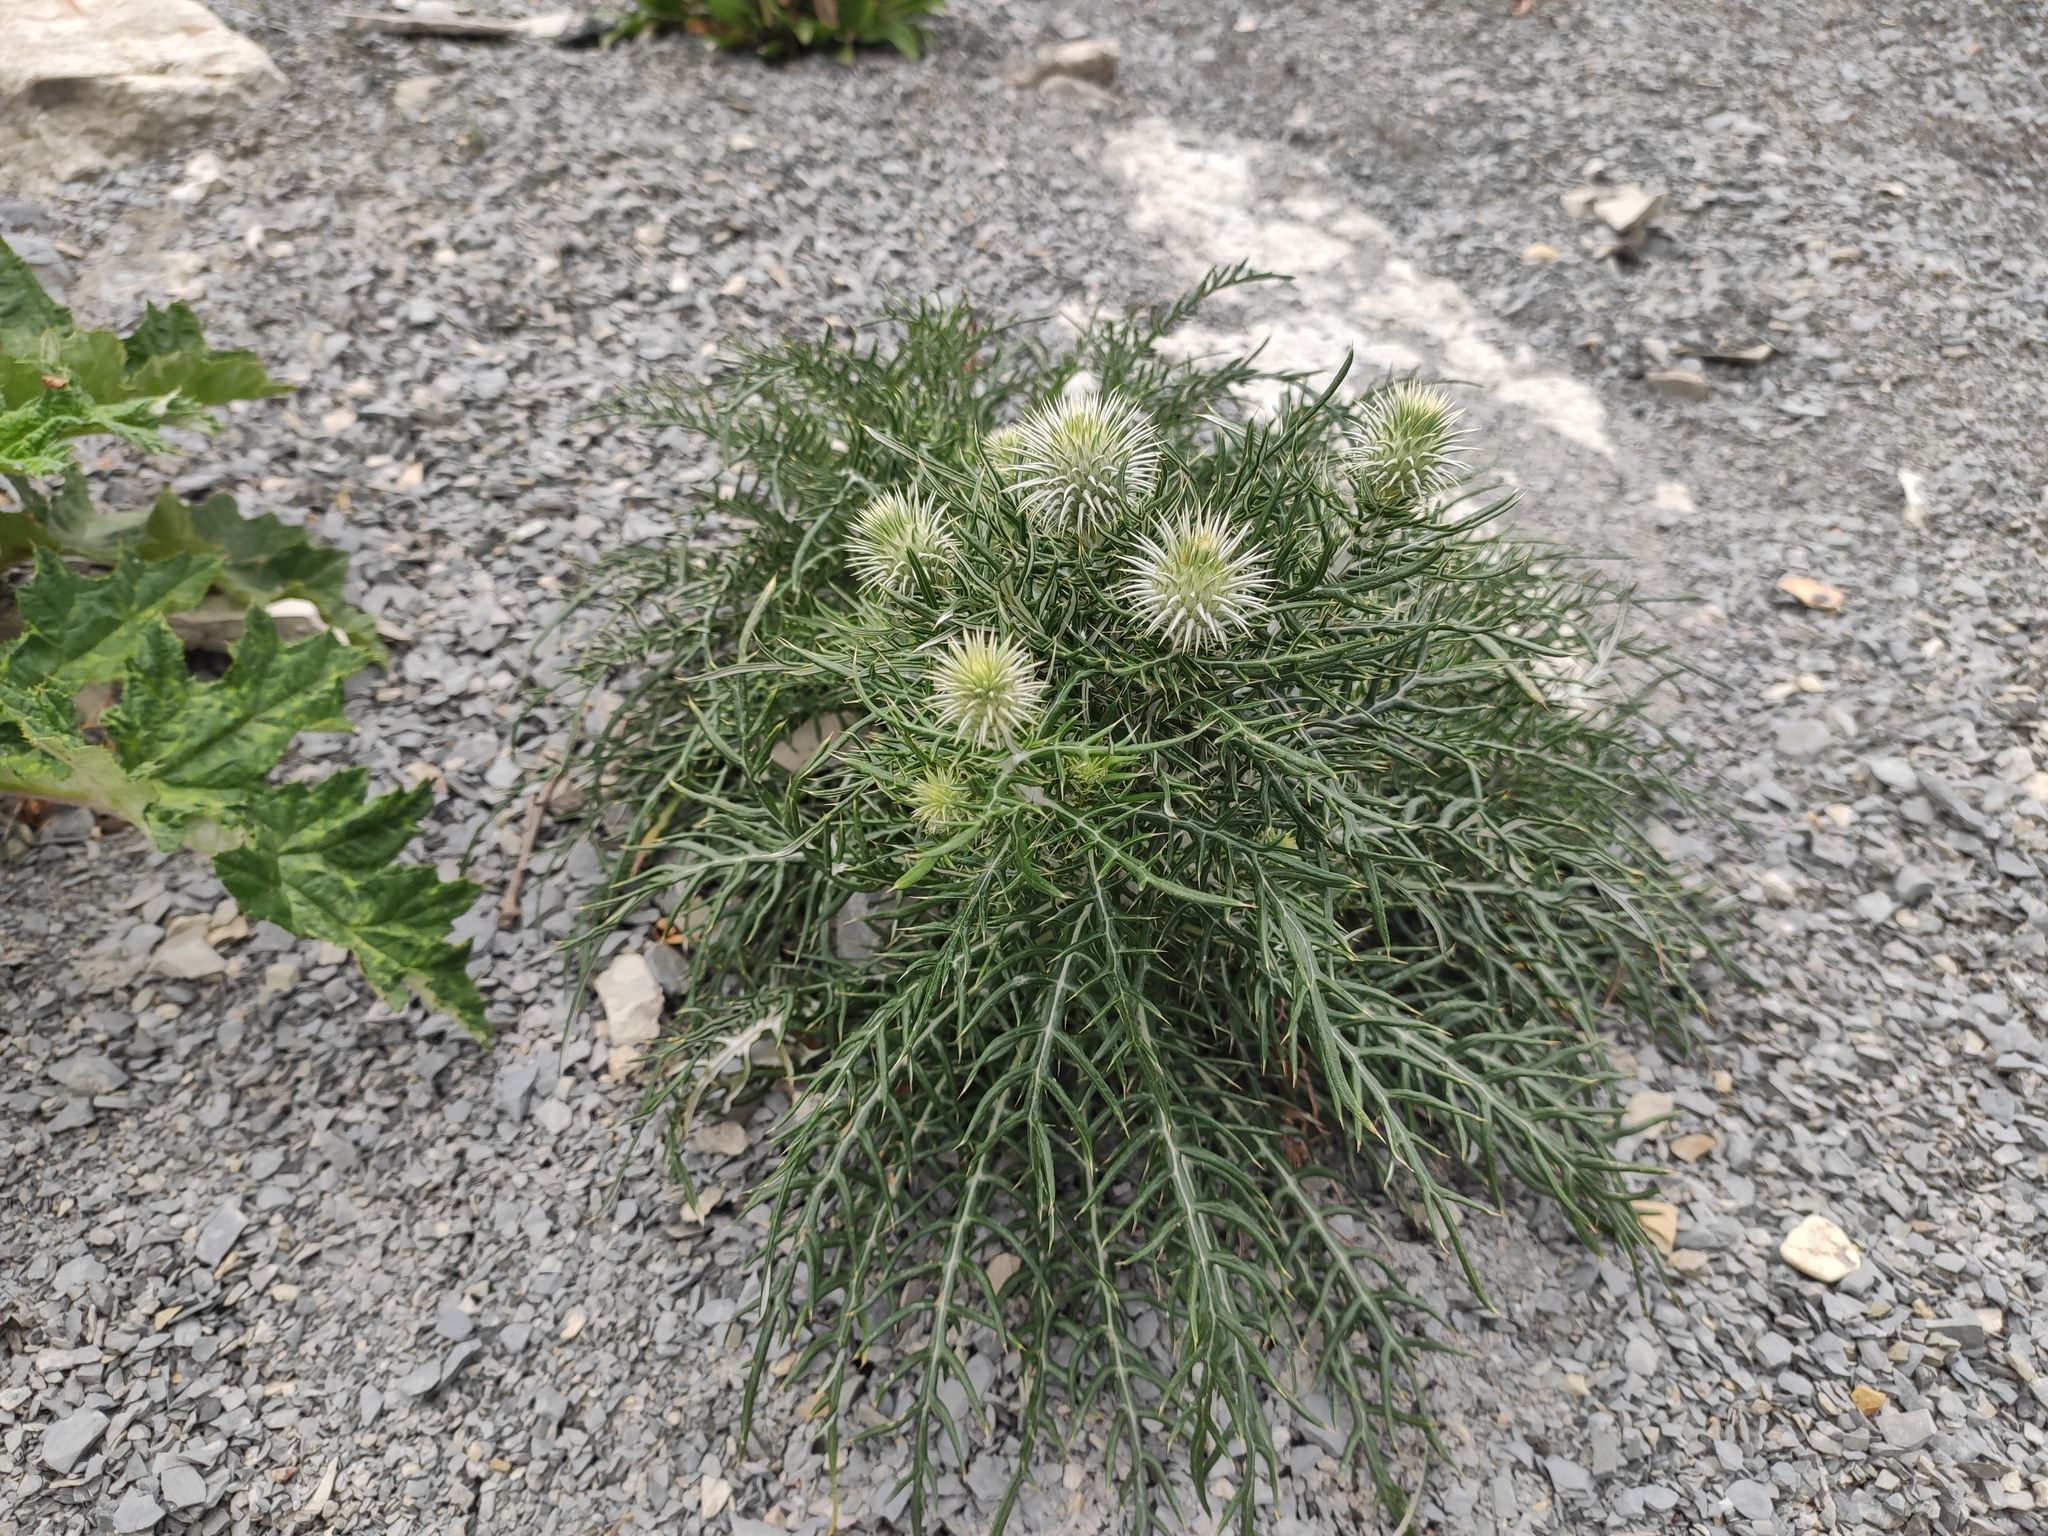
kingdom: Plantae
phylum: Tracheophyta
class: Magnoliopsida
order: Asterales
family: Asteraceae
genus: Ptilostemon
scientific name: Ptilostemon echinocephalus
